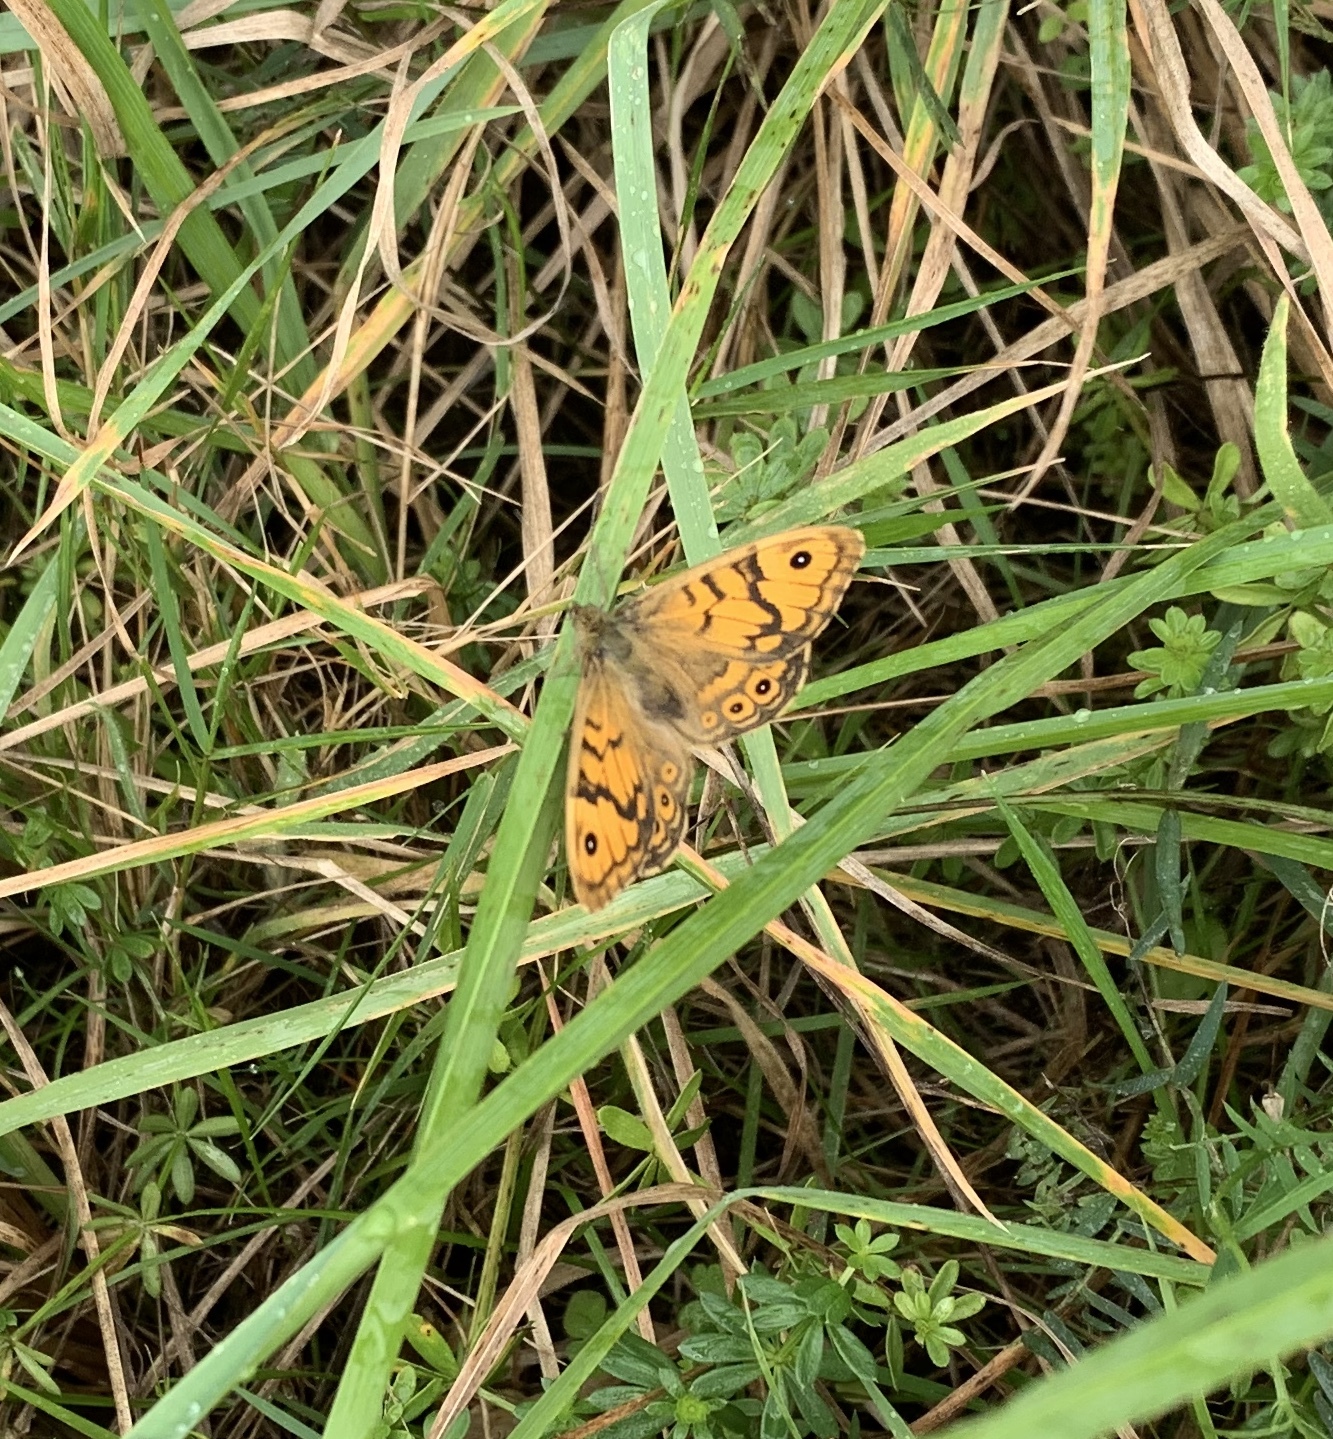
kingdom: Animalia
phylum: Arthropoda
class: Insecta
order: Lepidoptera
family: Nymphalidae
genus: Pararge
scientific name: Pararge Lasiommata megera
